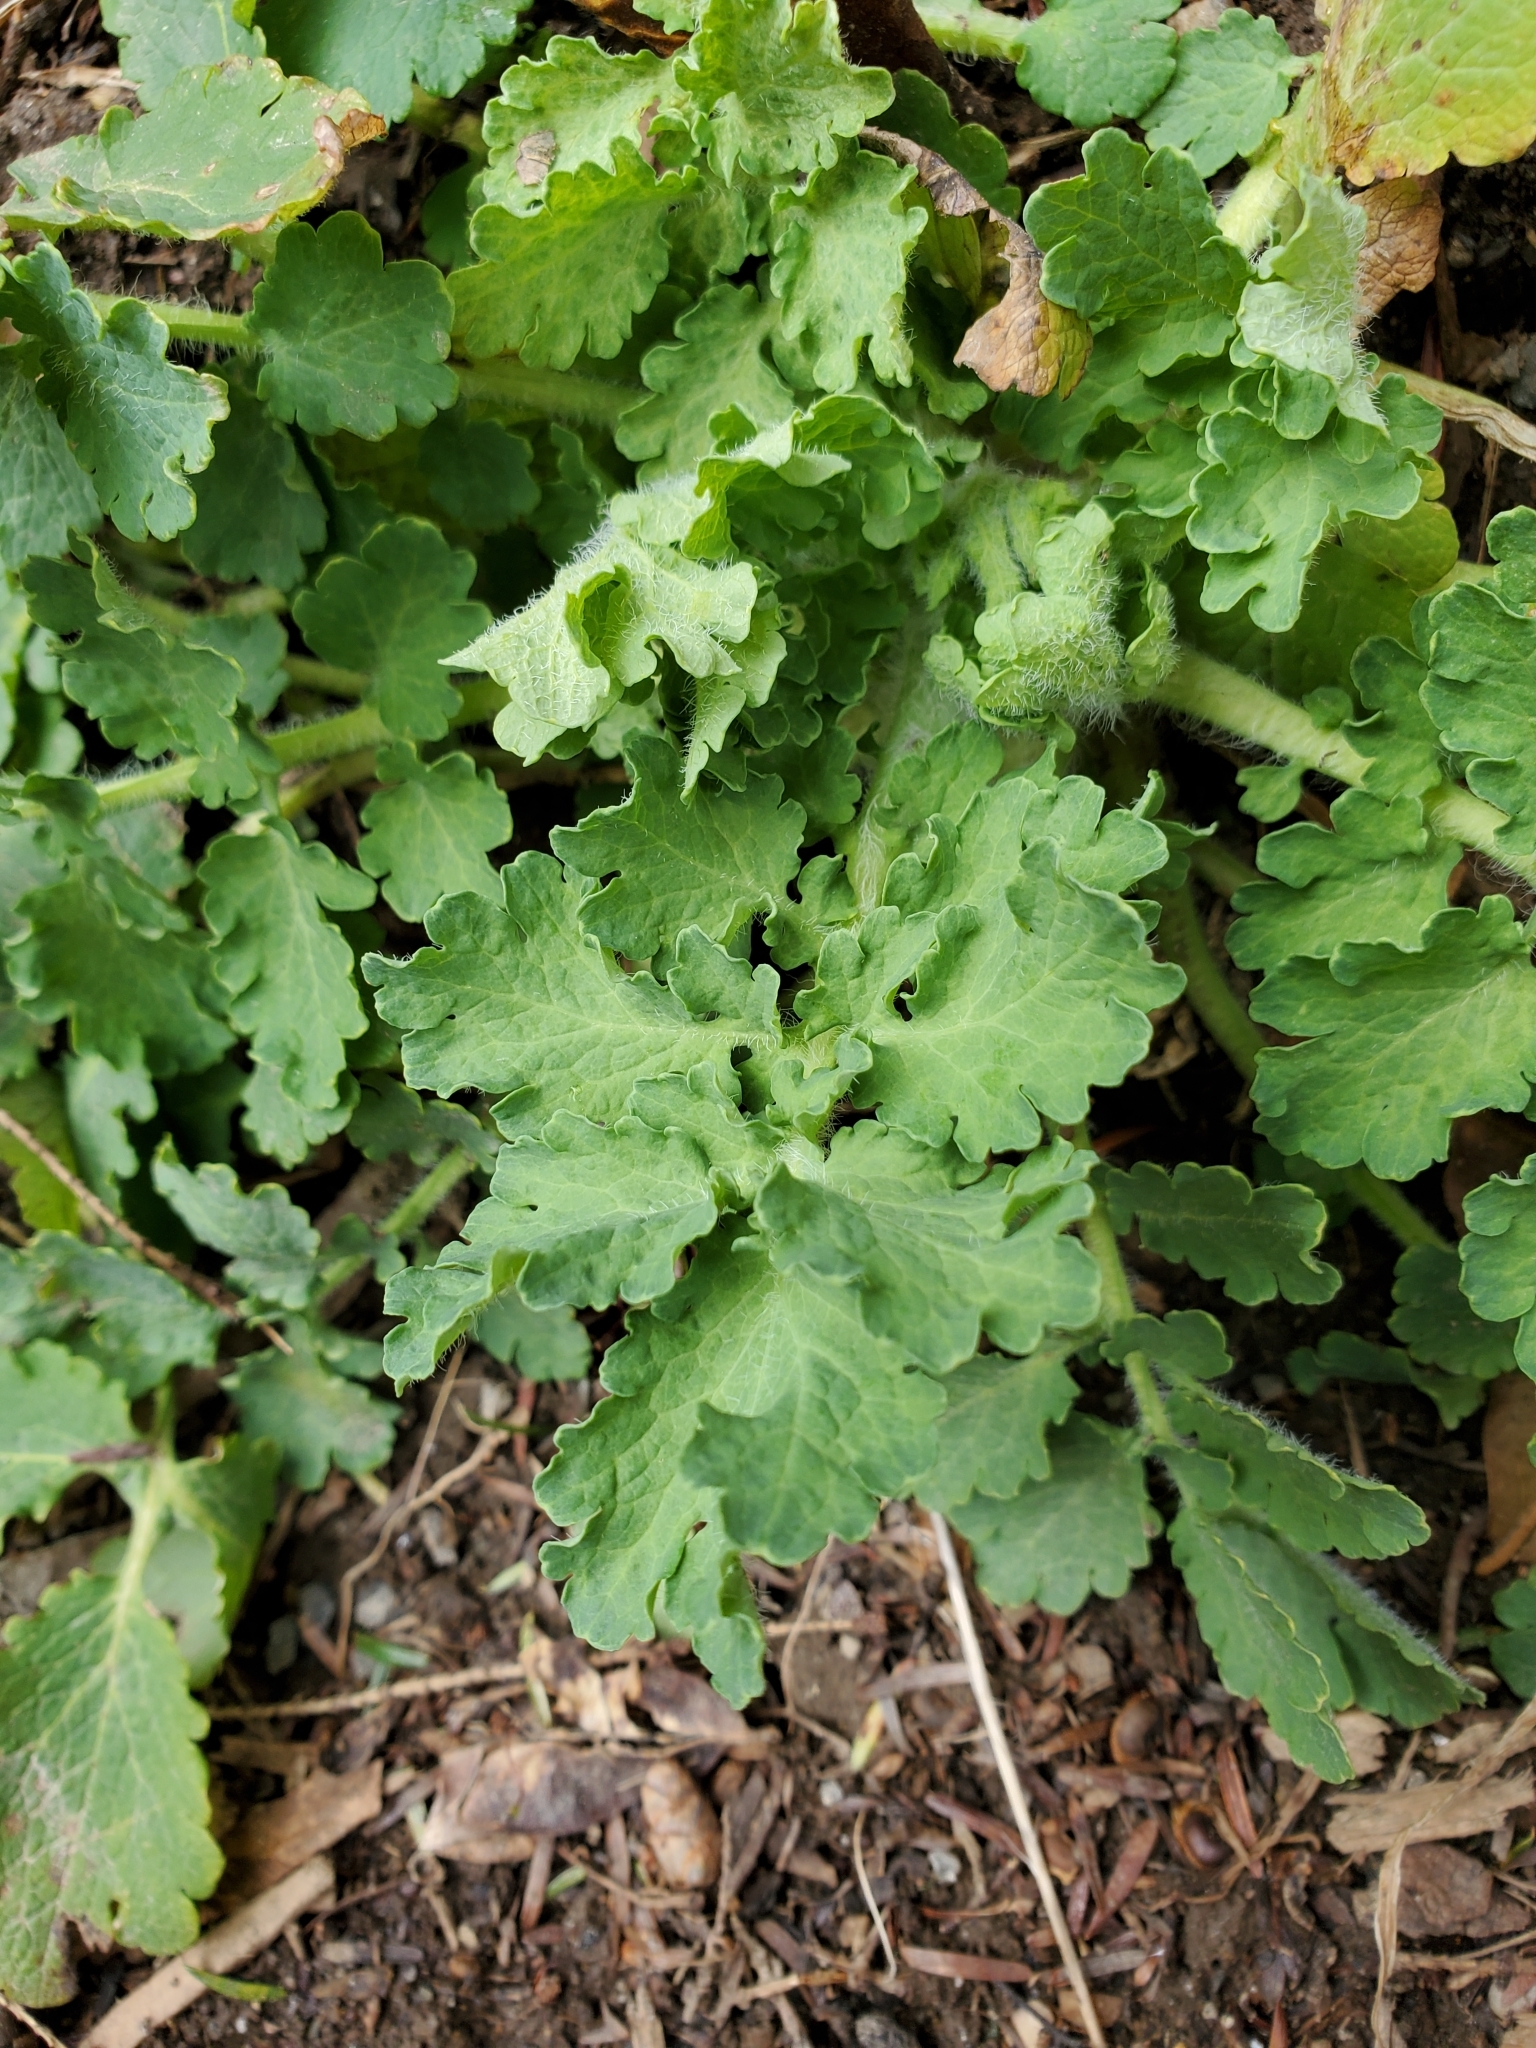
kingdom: Plantae
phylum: Tracheophyta
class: Magnoliopsida
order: Ranunculales
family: Papaveraceae
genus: Chelidonium
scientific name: Chelidonium majus
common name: Greater celandine
